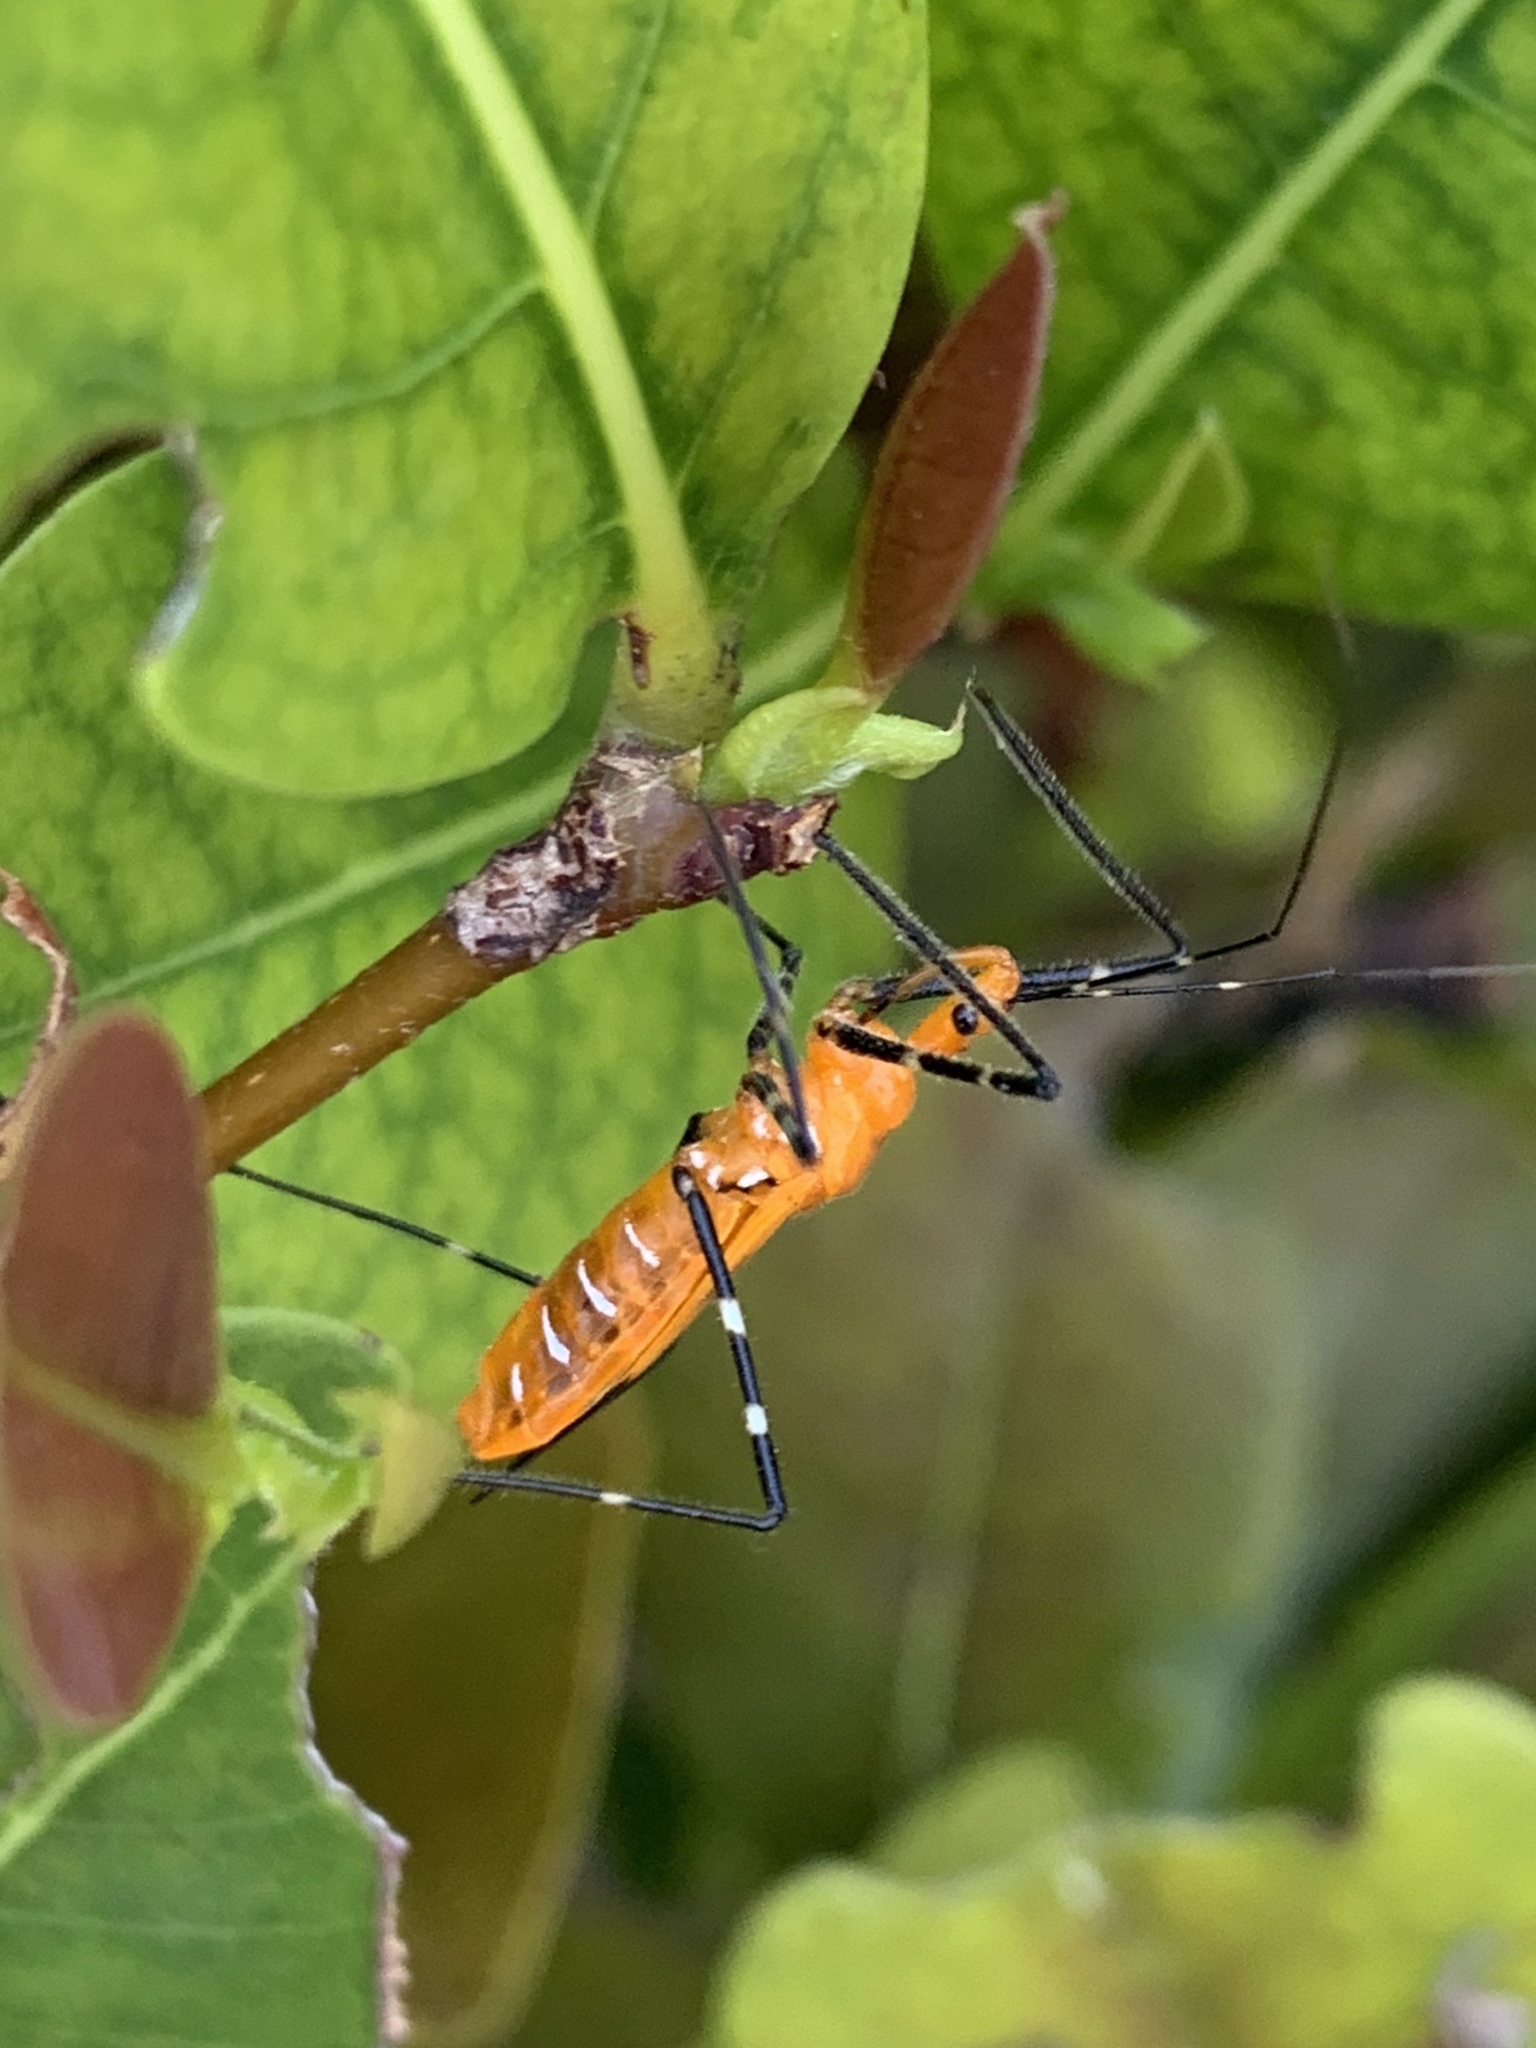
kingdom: Animalia
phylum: Arthropoda
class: Insecta
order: Hemiptera
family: Reduviidae
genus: Zelus
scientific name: Zelus longipes
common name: Milkweed assassin bug
